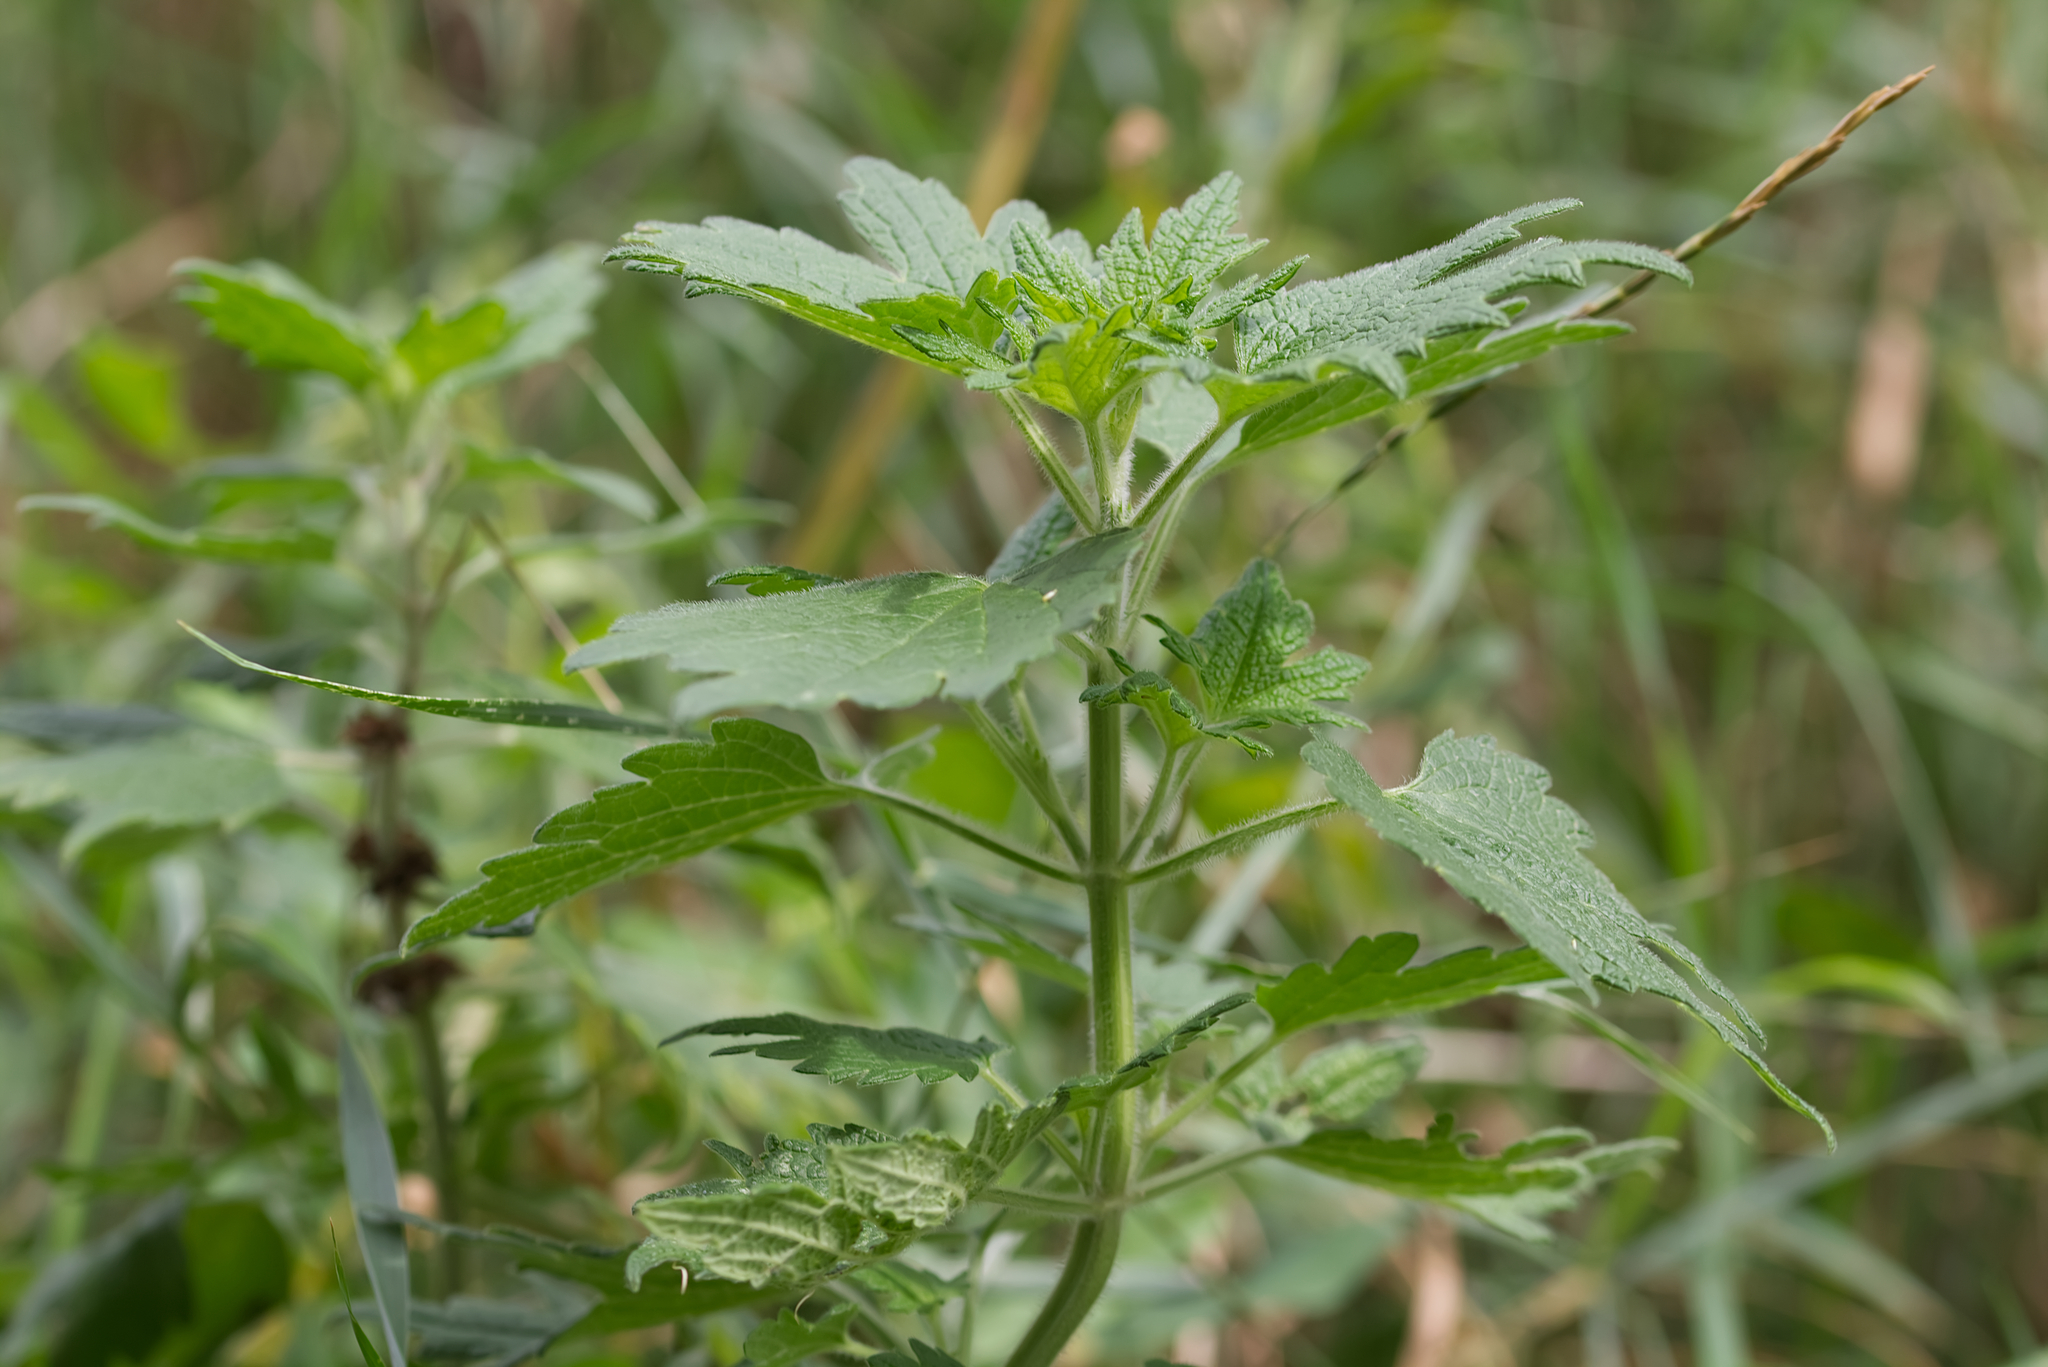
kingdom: Plantae
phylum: Tracheophyta
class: Magnoliopsida
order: Lamiales
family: Lamiaceae
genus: Leonurus
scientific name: Leonurus quinquelobatus
